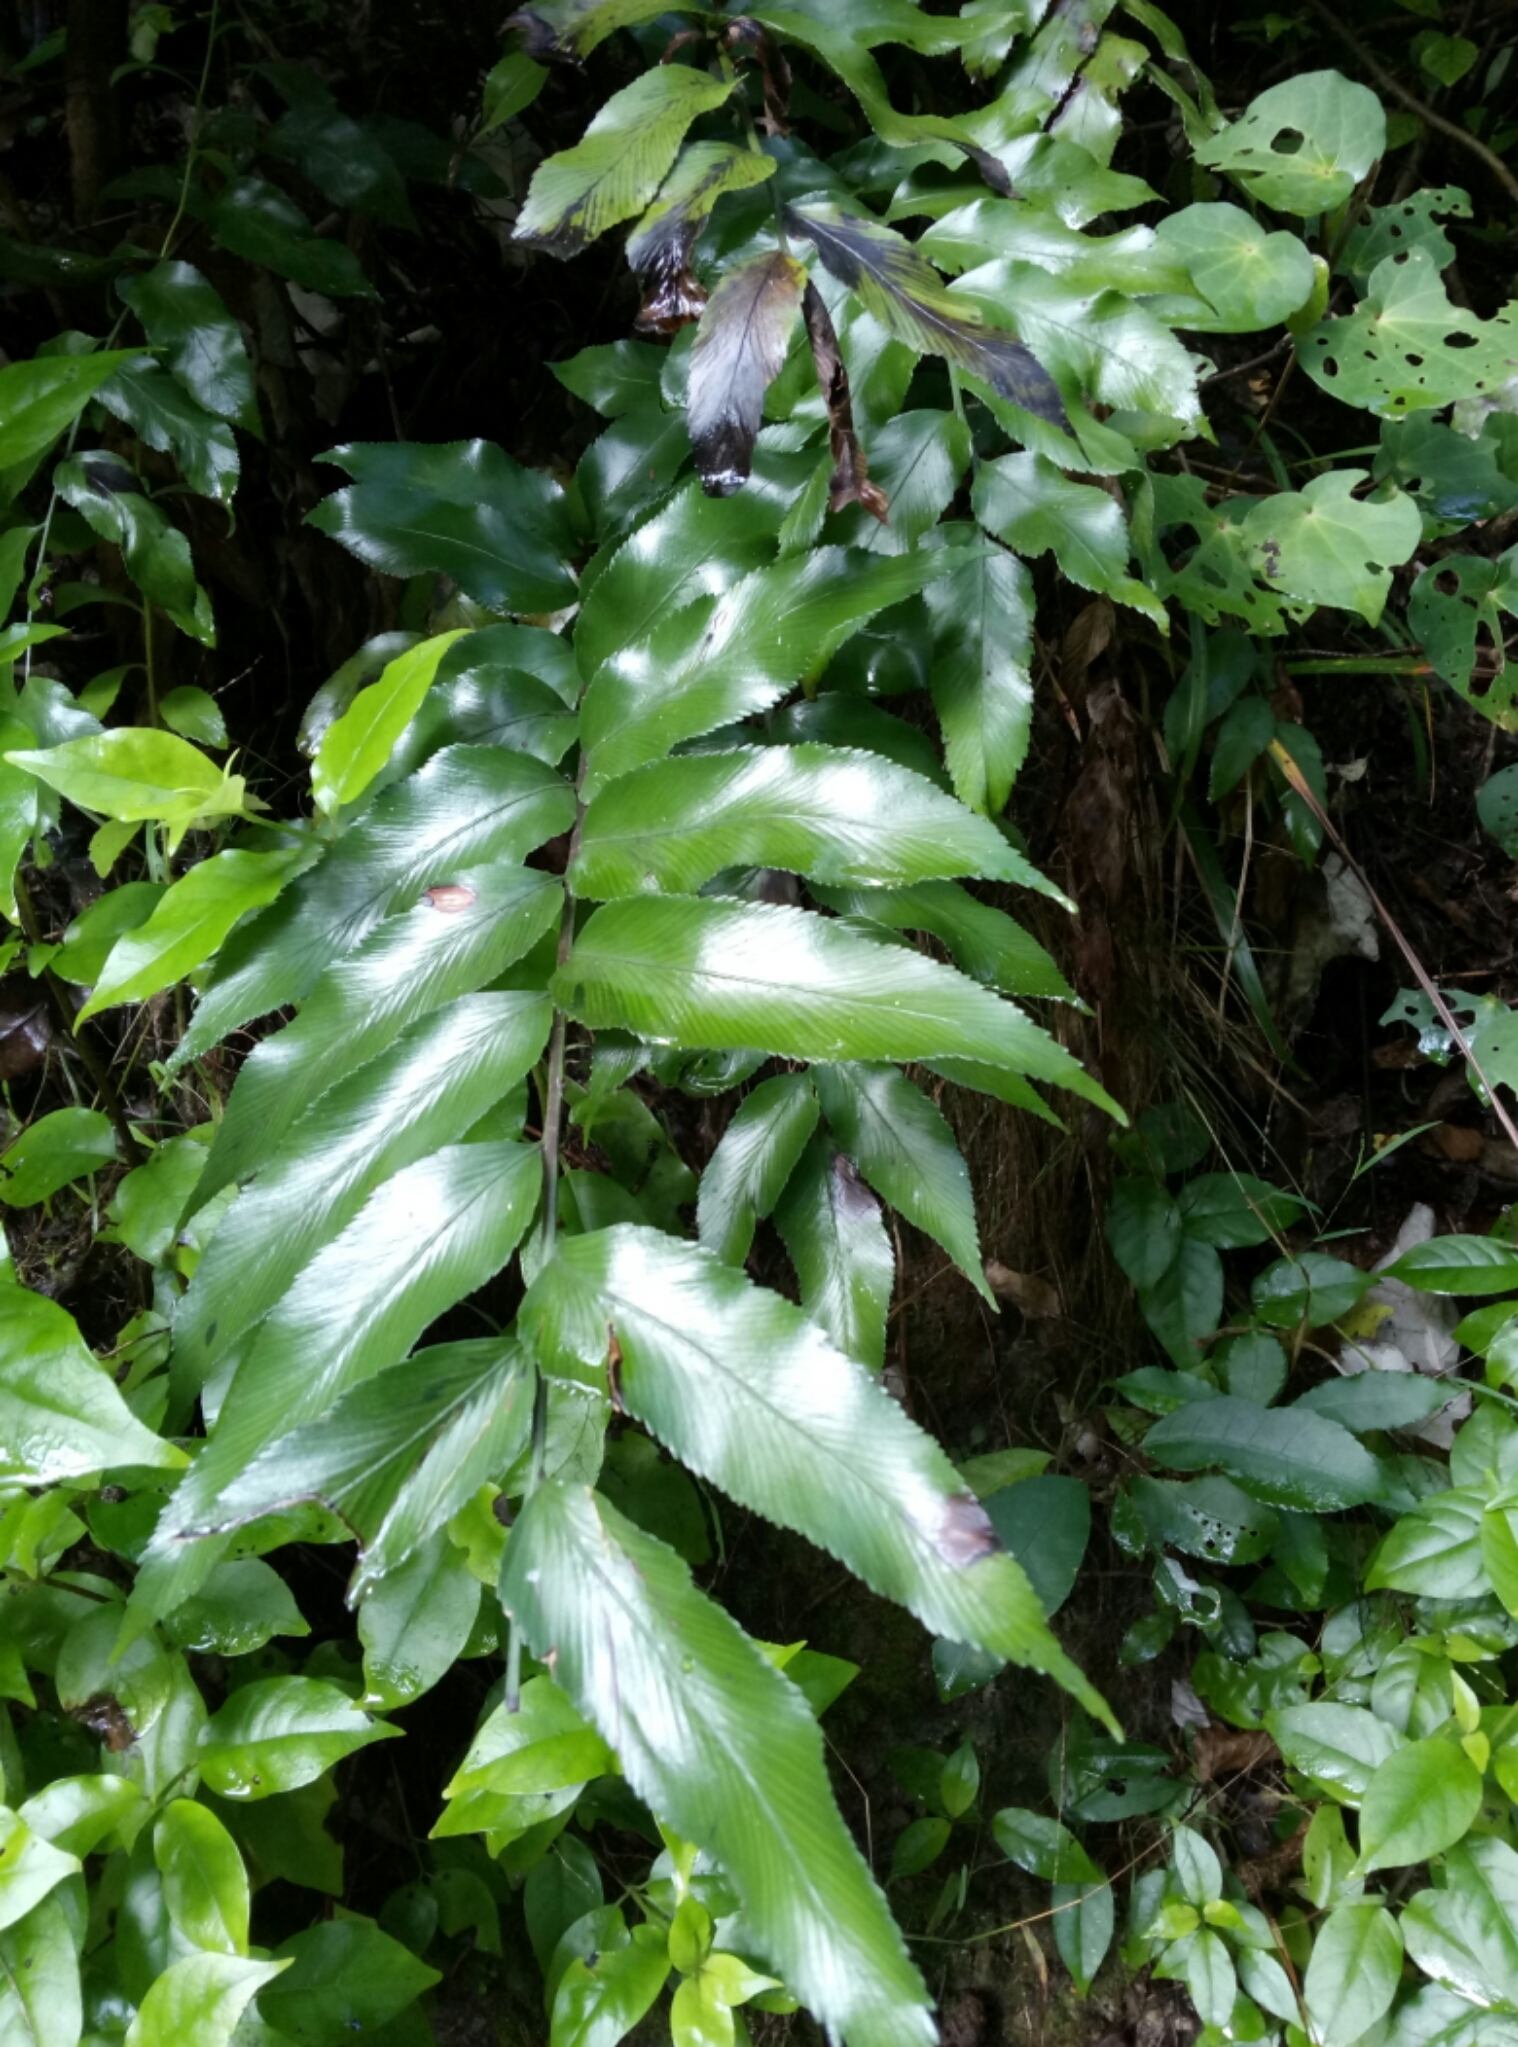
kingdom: Plantae
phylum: Tracheophyta
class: Polypodiopsida
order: Polypodiales
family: Aspleniaceae
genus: Asplenium
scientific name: Asplenium oblongifolium
